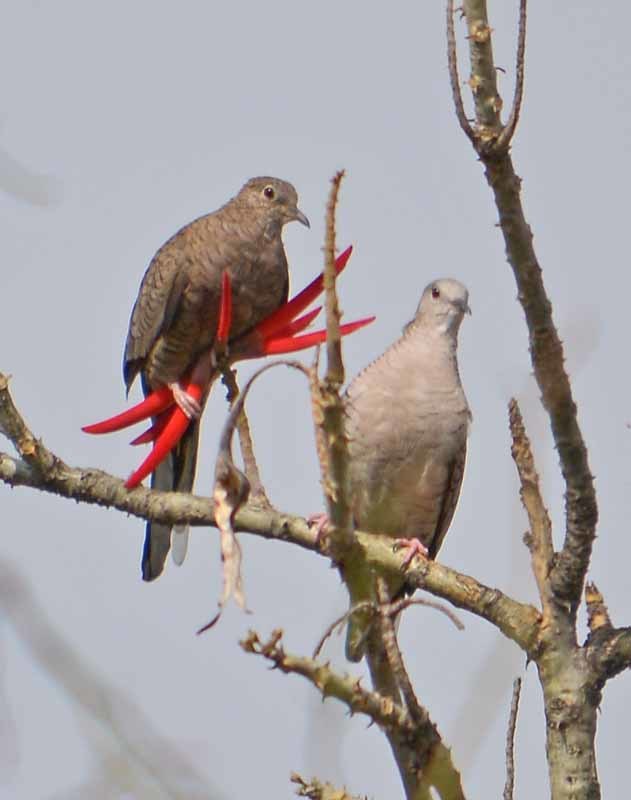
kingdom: Animalia
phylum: Chordata
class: Aves
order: Columbiformes
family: Columbidae
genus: Columbina
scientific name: Columbina inca
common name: Inca dove
